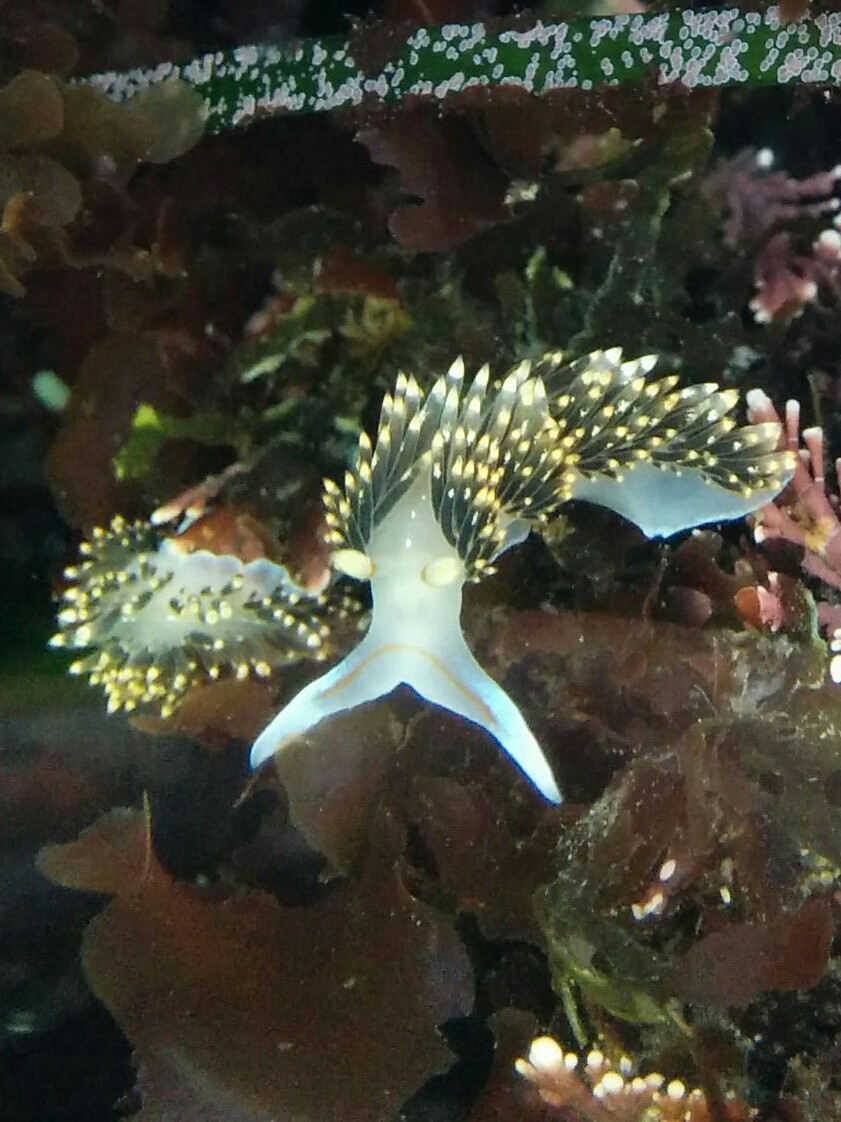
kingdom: Animalia
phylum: Mollusca
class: Gastropoda
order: Nudibranchia
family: Facelinidae
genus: Phidiana
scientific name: Phidiana hiltoni
